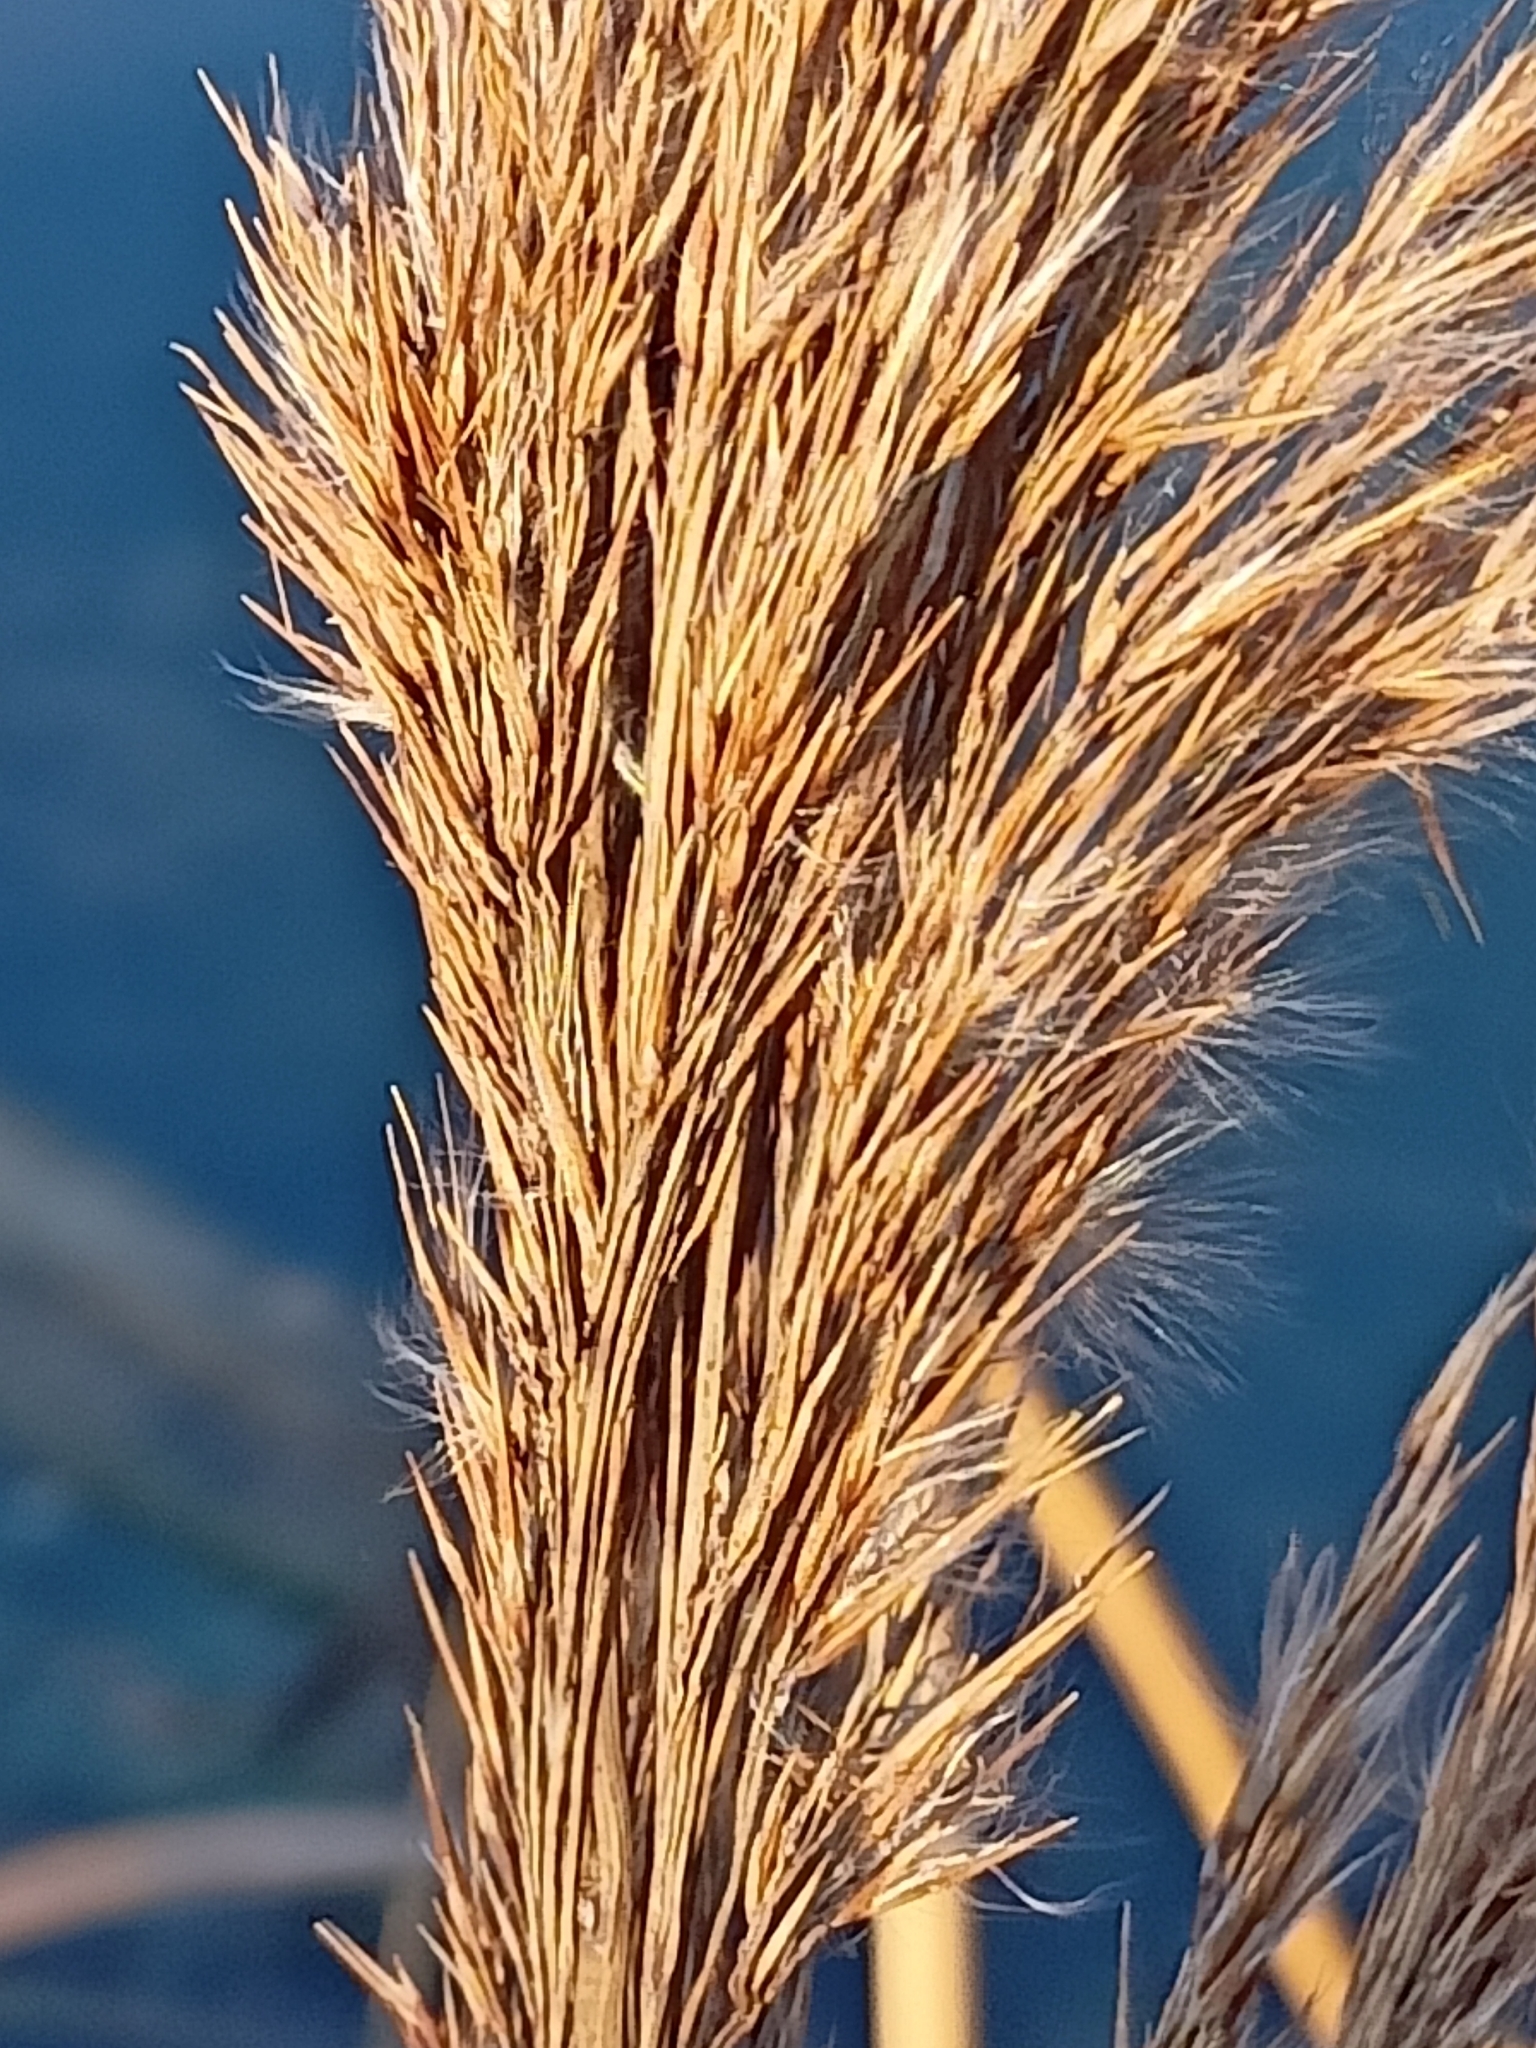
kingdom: Plantae
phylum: Tracheophyta
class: Liliopsida
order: Poales
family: Poaceae
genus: Phragmites
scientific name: Phragmites australis
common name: Common reed
